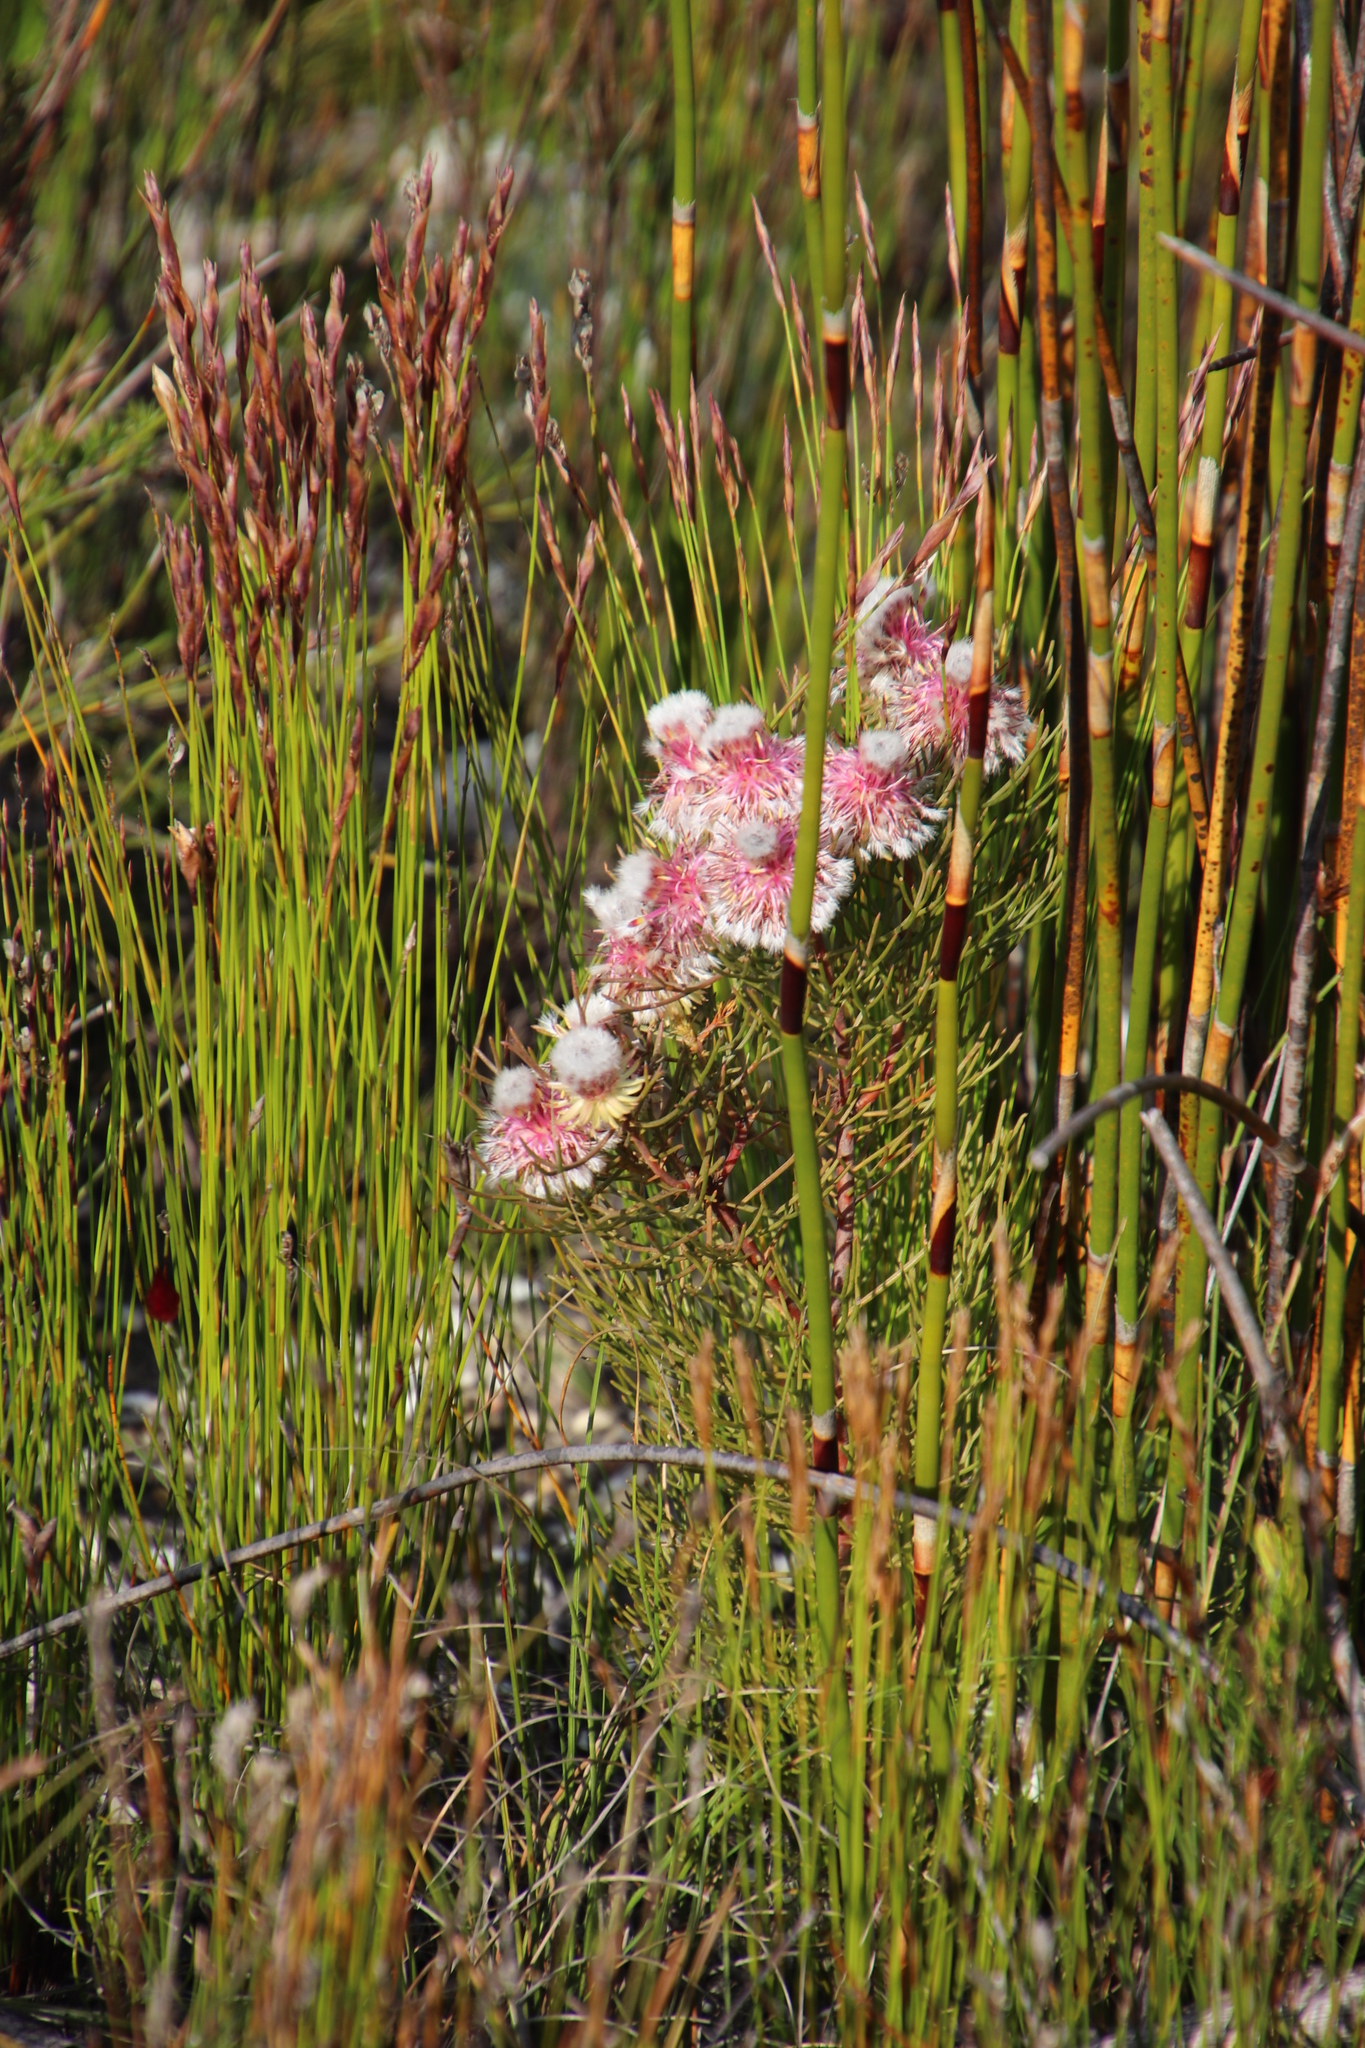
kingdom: Plantae
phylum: Tracheophyta
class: Magnoliopsida
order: Proteales
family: Proteaceae
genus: Serruria
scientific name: Serruria phylicoides
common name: Bearded spiderhead
